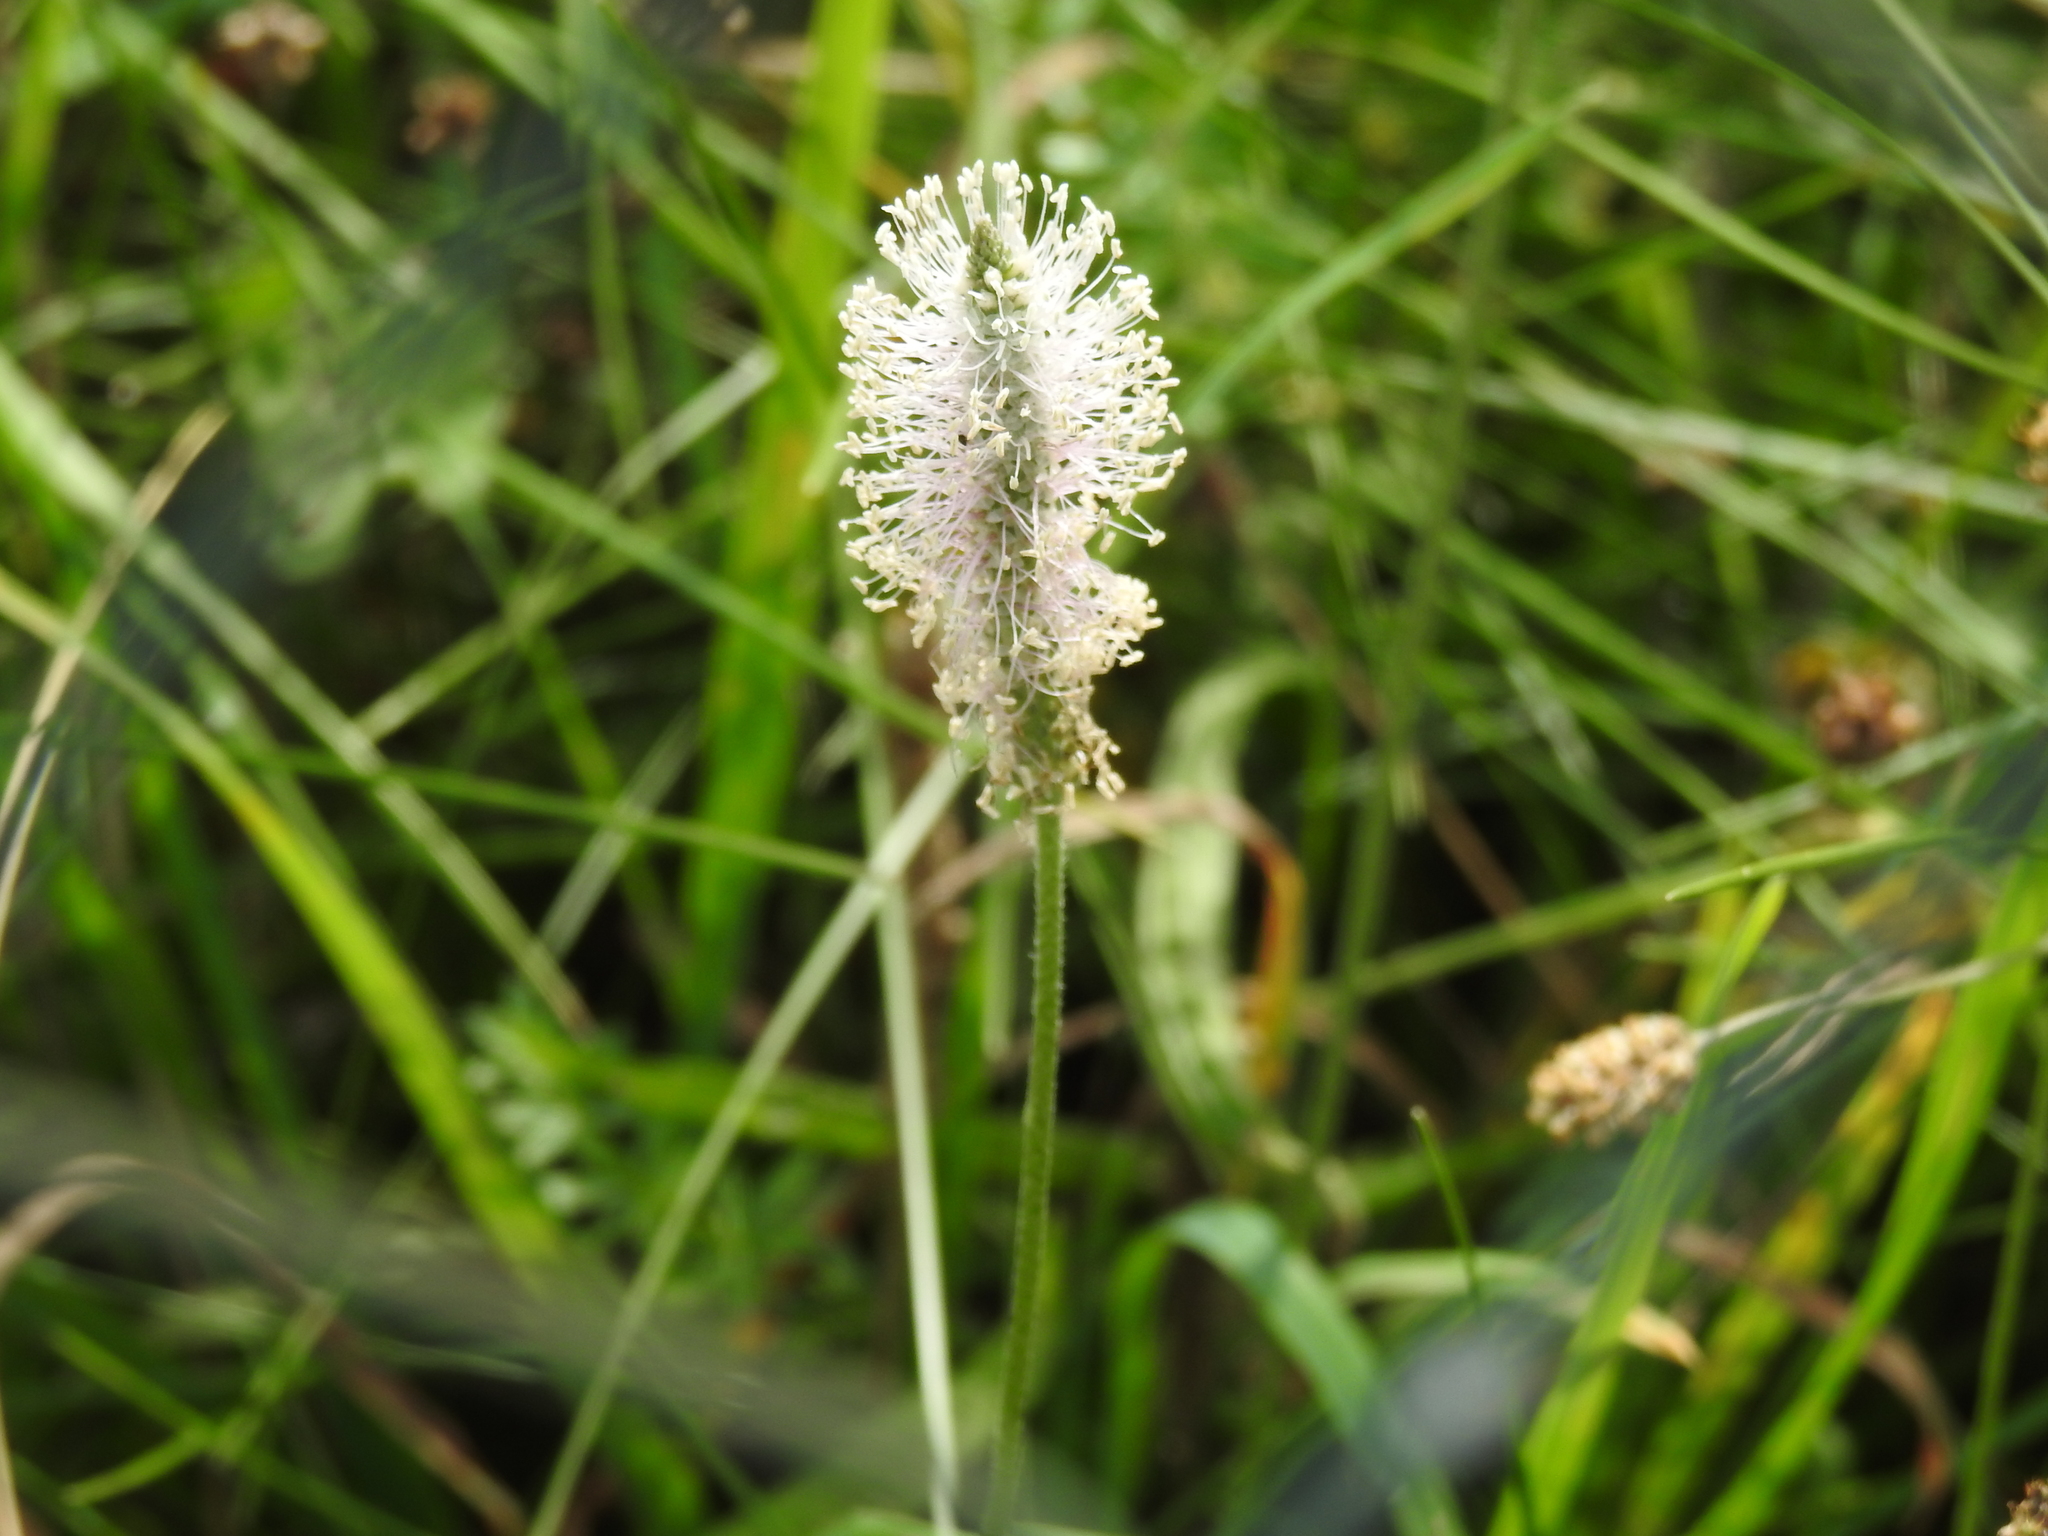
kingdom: Plantae
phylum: Tracheophyta
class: Magnoliopsida
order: Lamiales
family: Plantaginaceae
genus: Plantago
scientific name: Plantago media
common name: Hoary plantain
